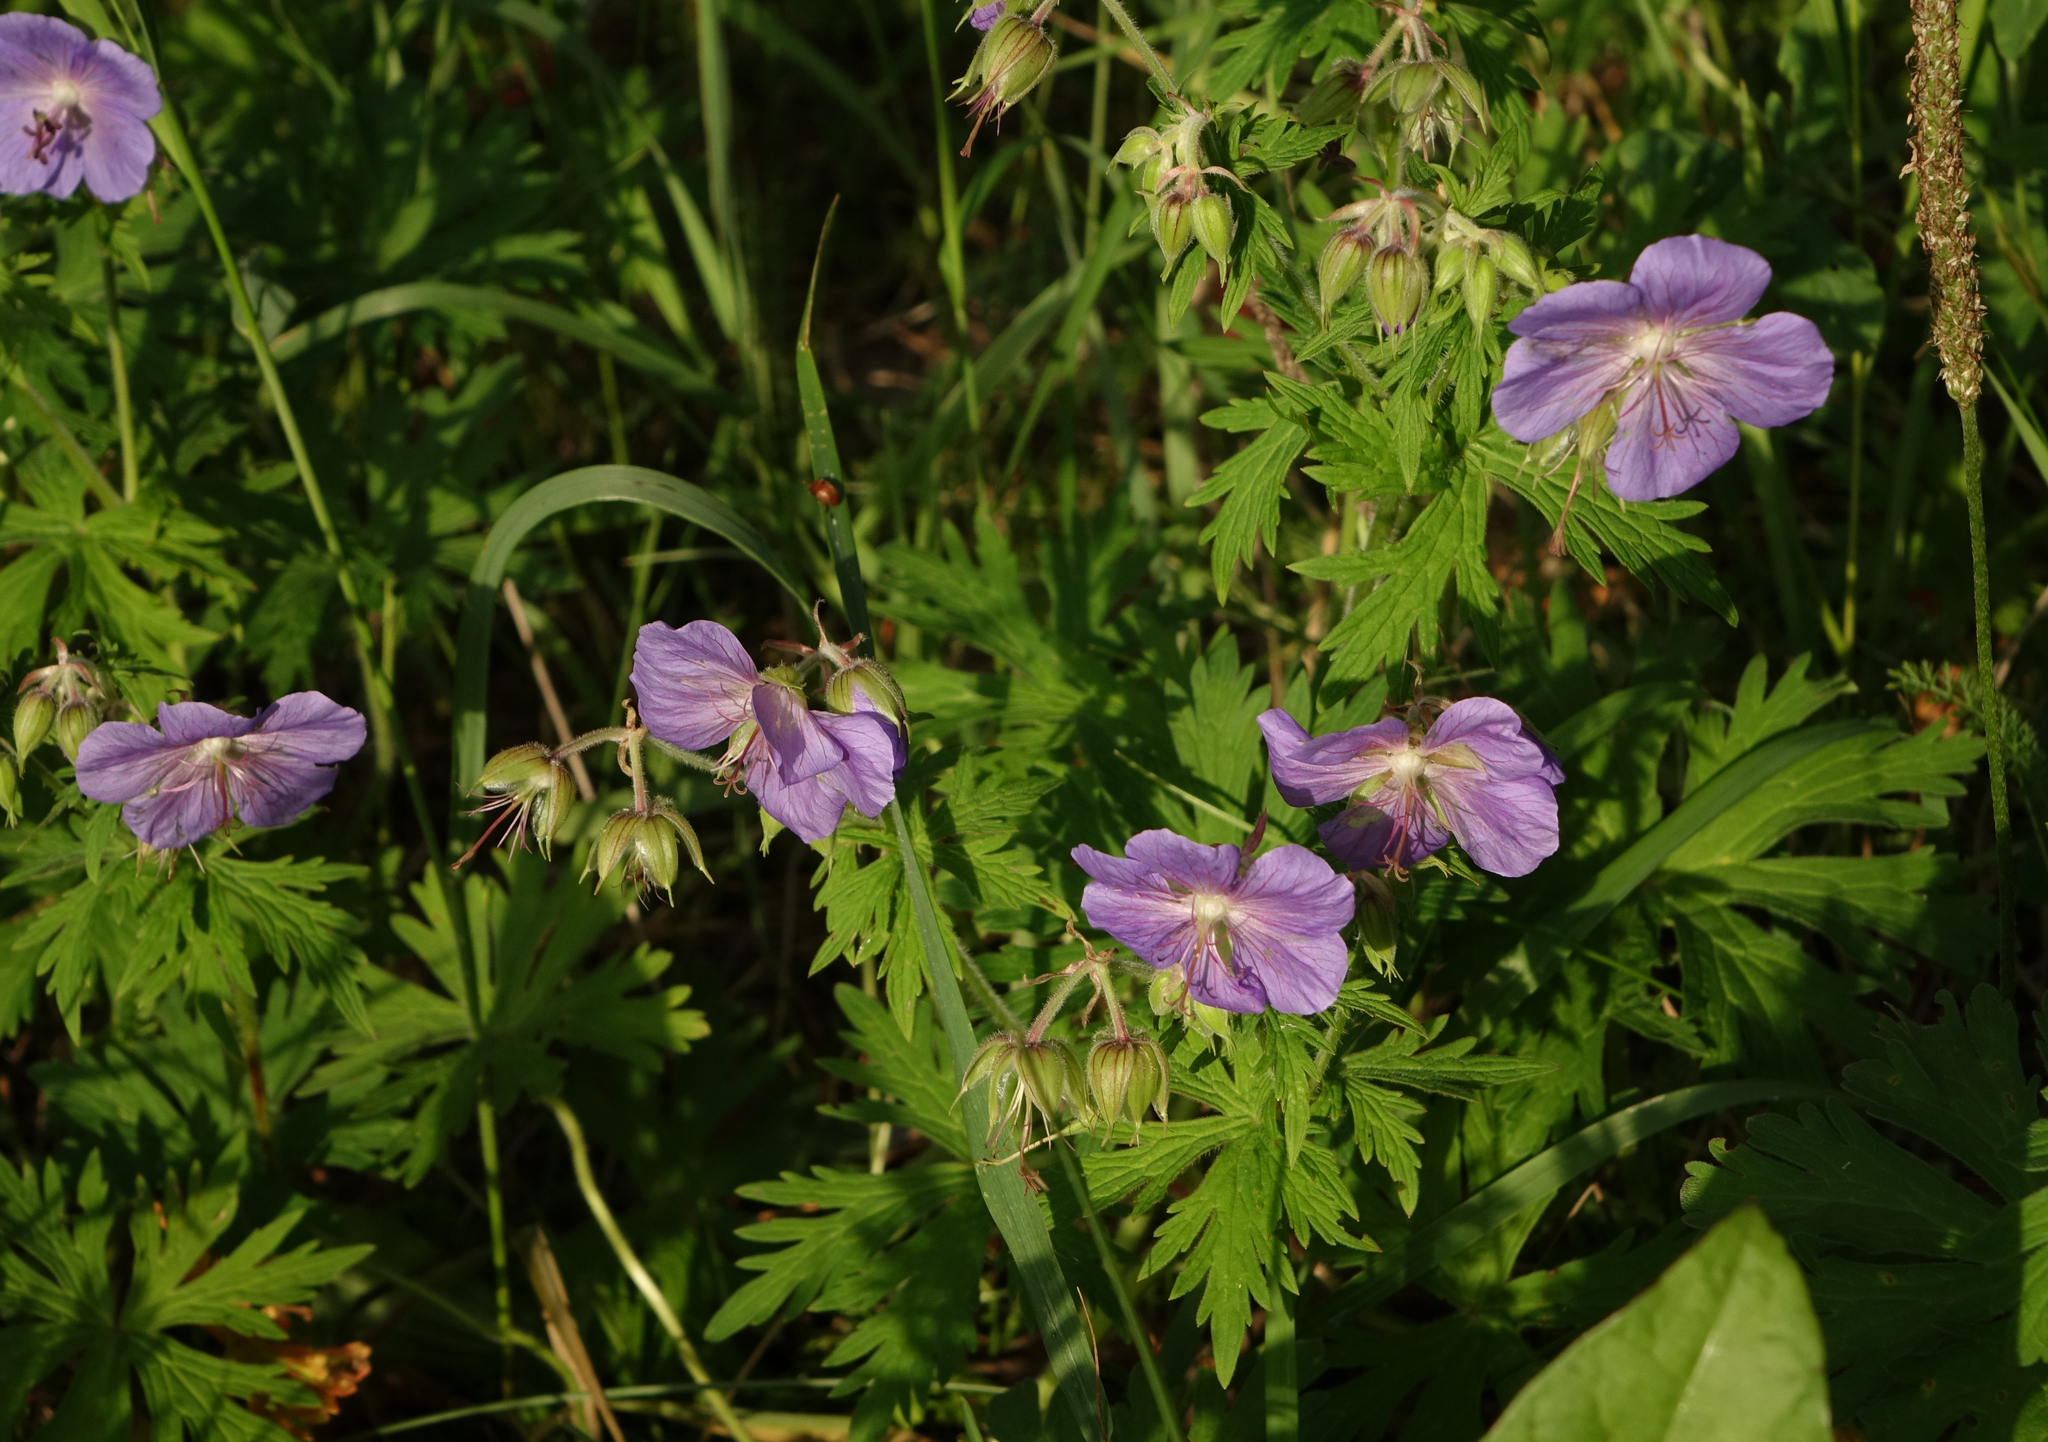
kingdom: Plantae
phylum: Tracheophyta
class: Magnoliopsida
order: Geraniales
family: Geraniaceae
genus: Geranium
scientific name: Geranium pratense
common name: Meadow crane's-bill
